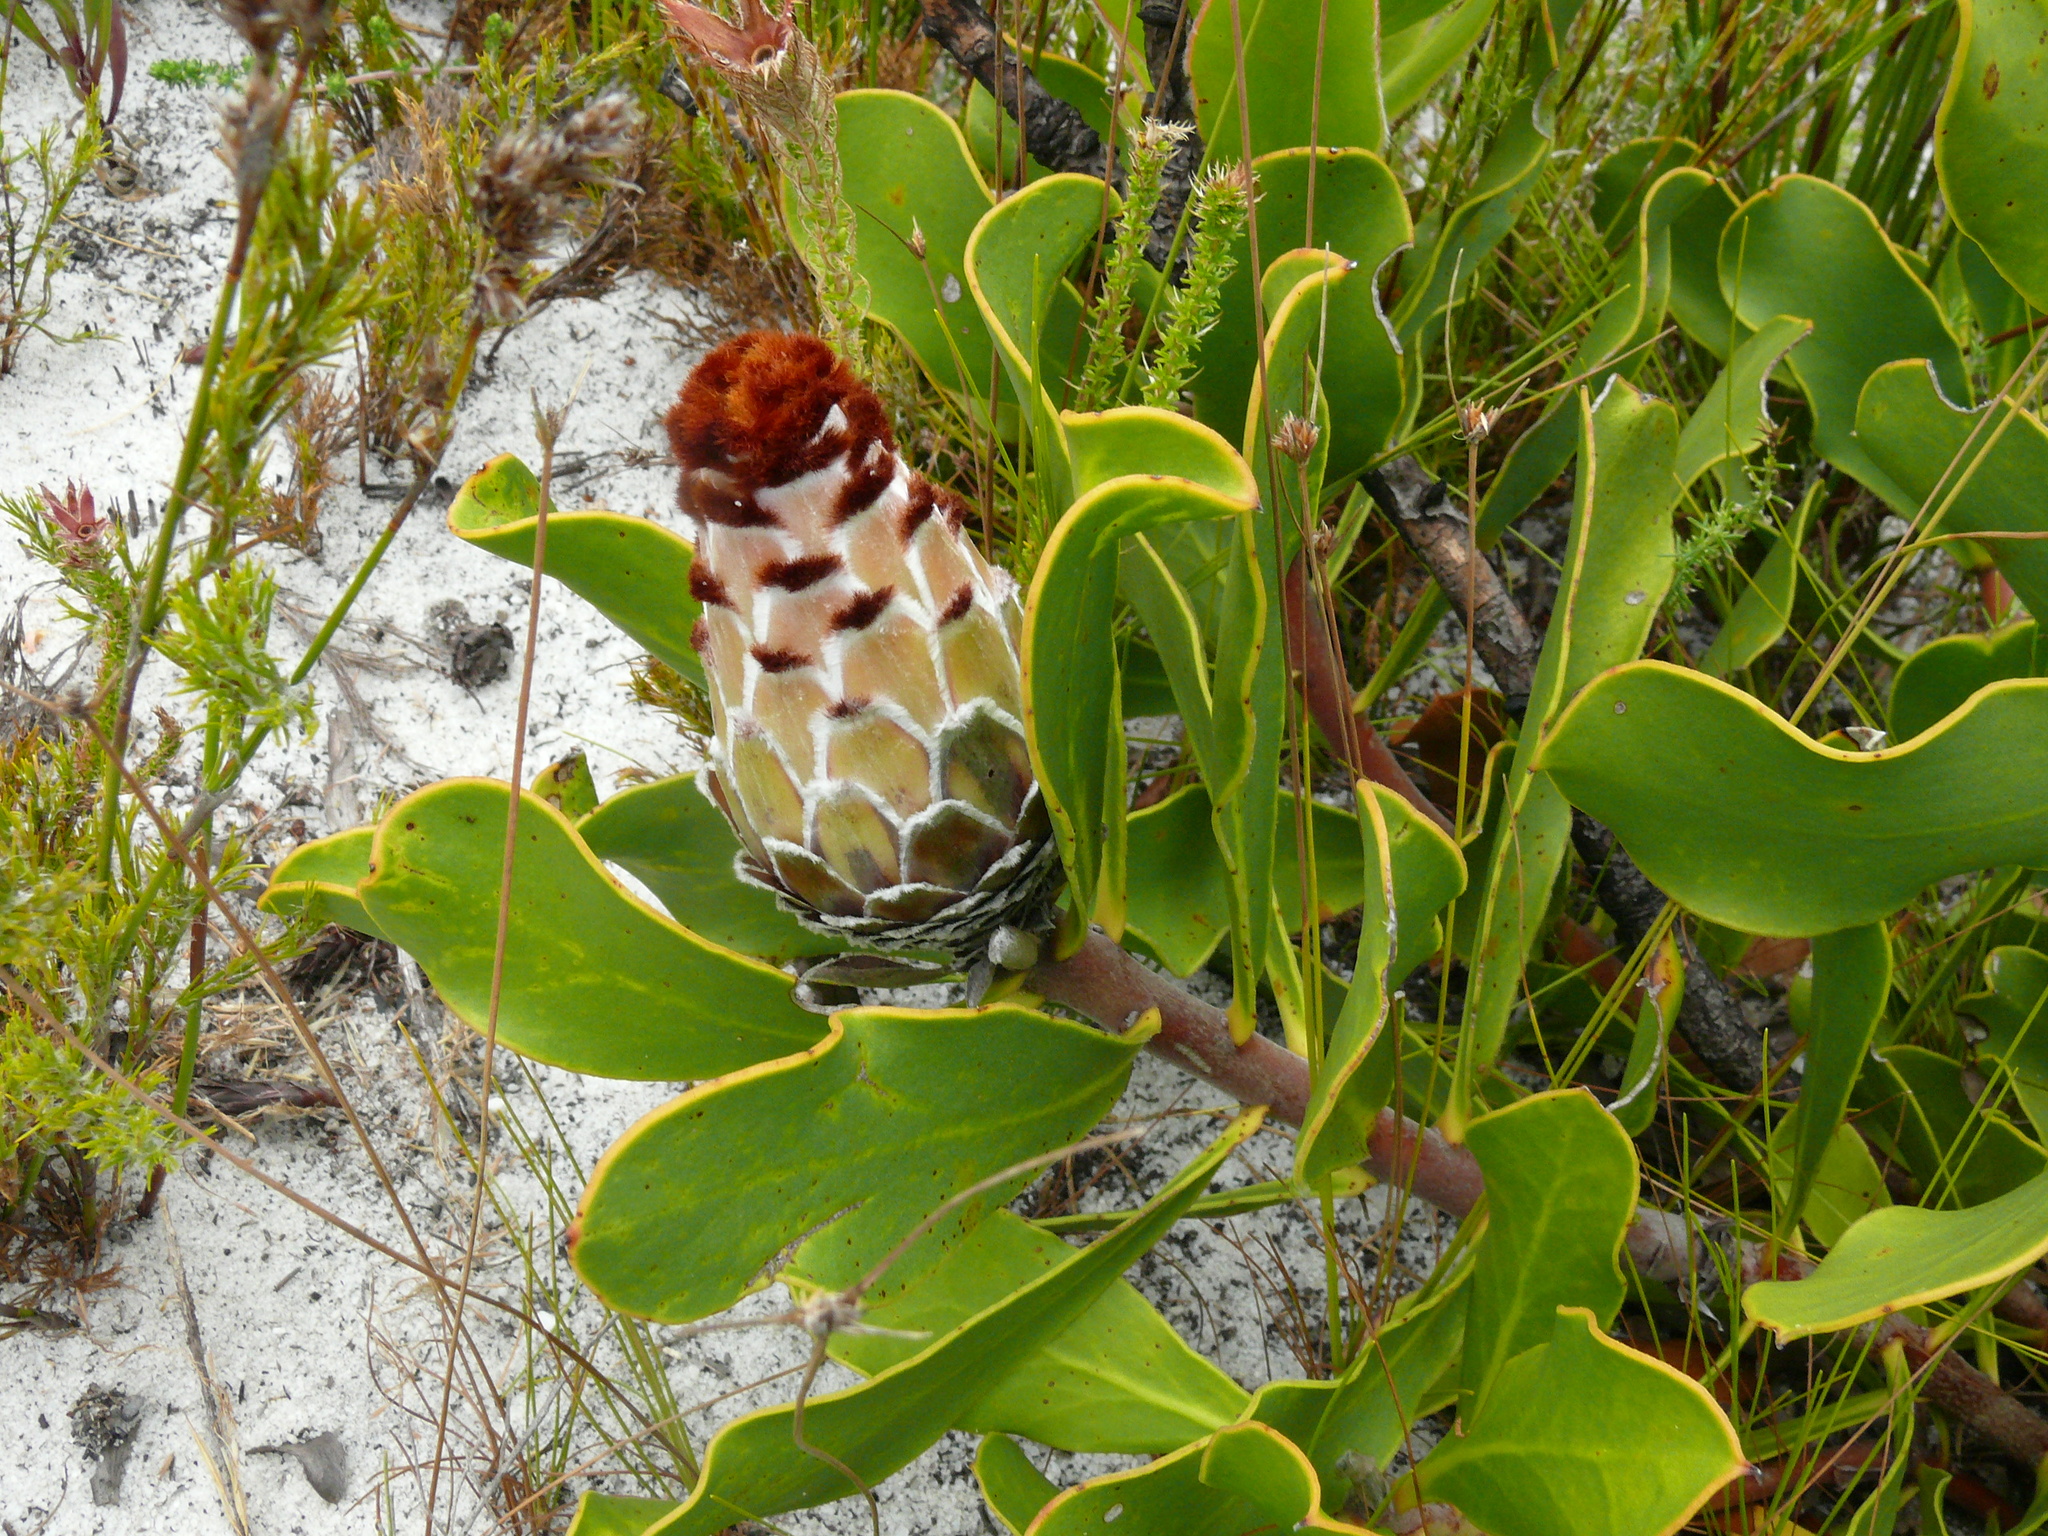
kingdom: Plantae
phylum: Tracheophyta
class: Magnoliopsida
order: Proteales
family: Proteaceae
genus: Protea
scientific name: Protea speciosa
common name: Brown-beard sugarbush
